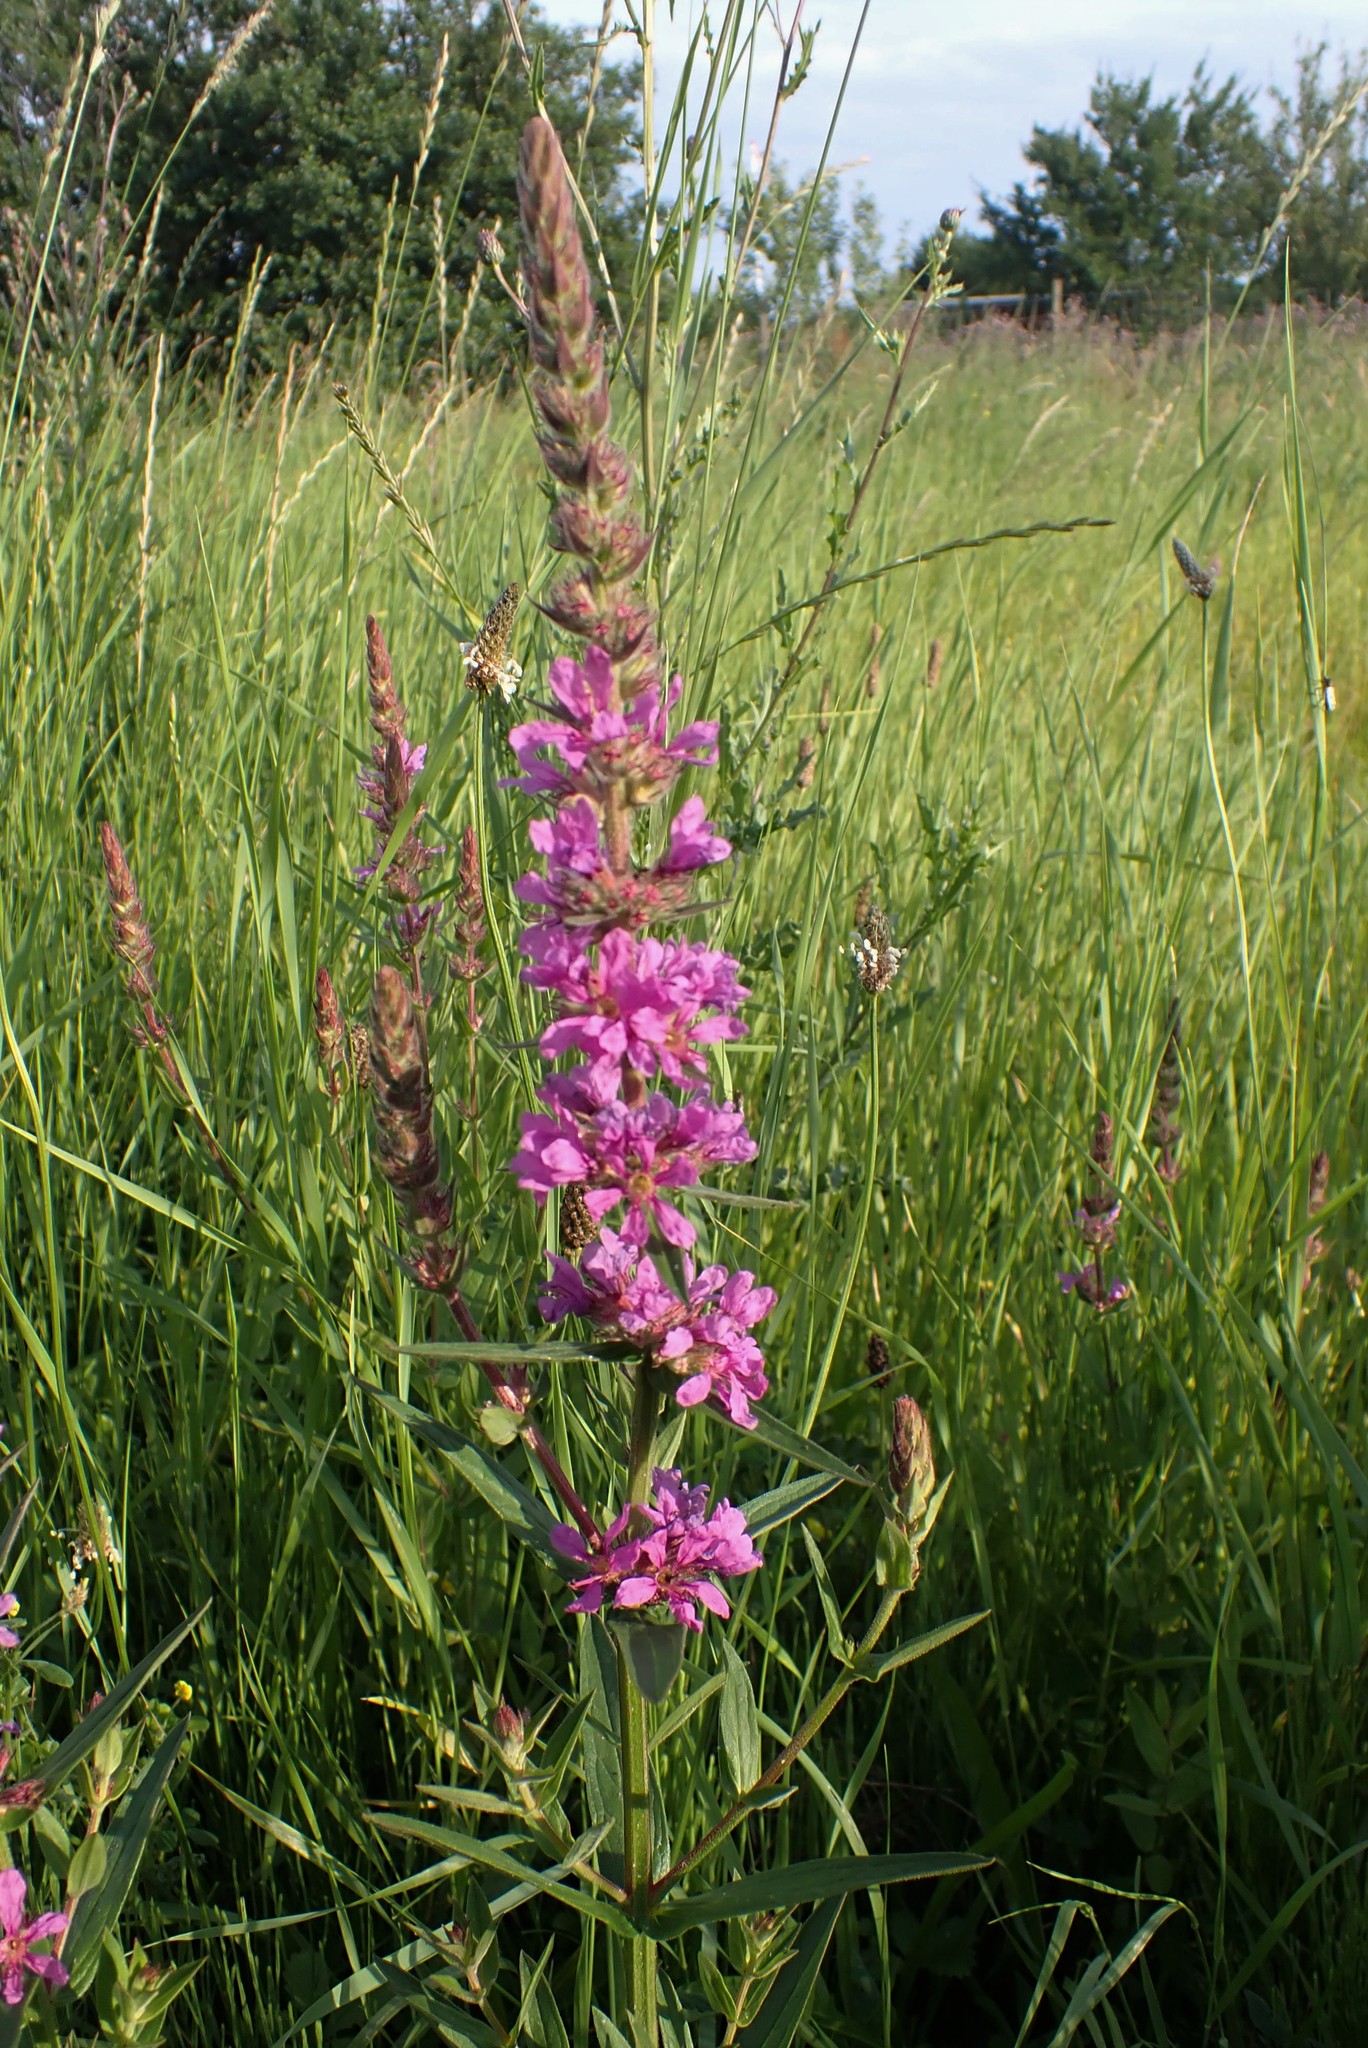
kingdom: Plantae
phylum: Tracheophyta
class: Magnoliopsida
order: Myrtales
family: Lythraceae
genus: Lythrum
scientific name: Lythrum salicaria
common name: Purple loosestrife
